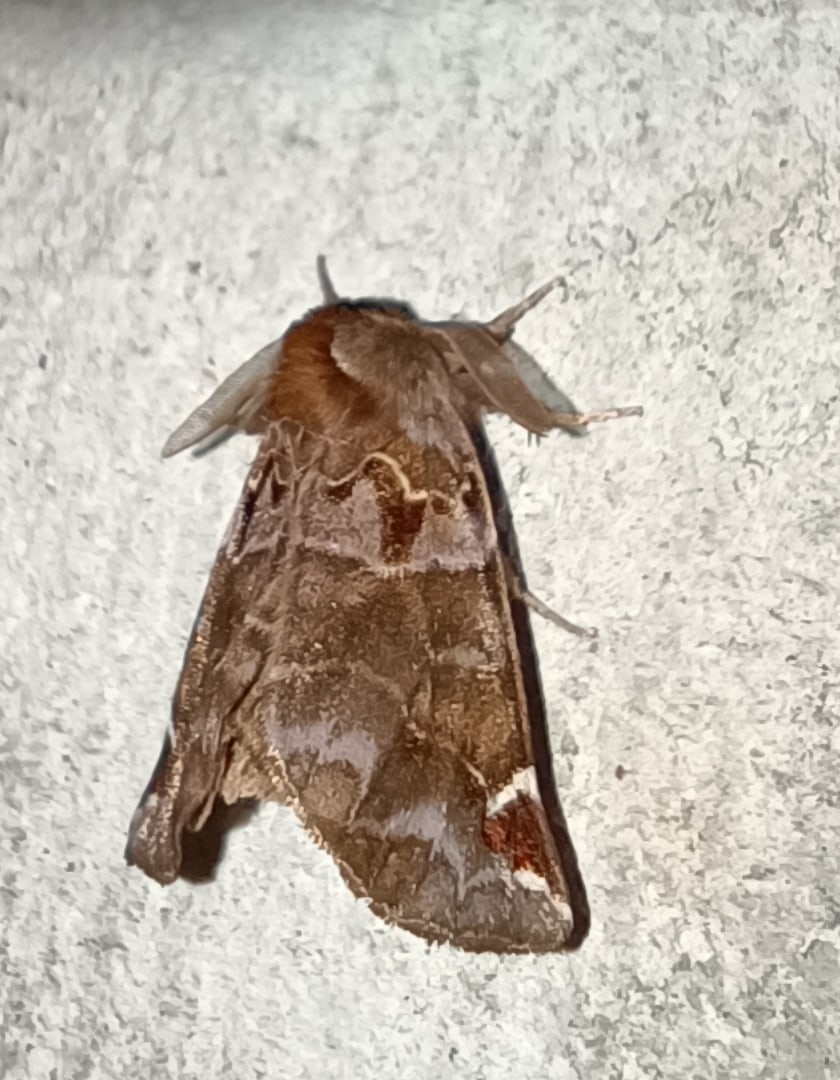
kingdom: Animalia
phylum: Arthropoda
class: Insecta
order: Lepidoptera
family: Notodontidae
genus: Pygaera
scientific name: Pygaera timon
